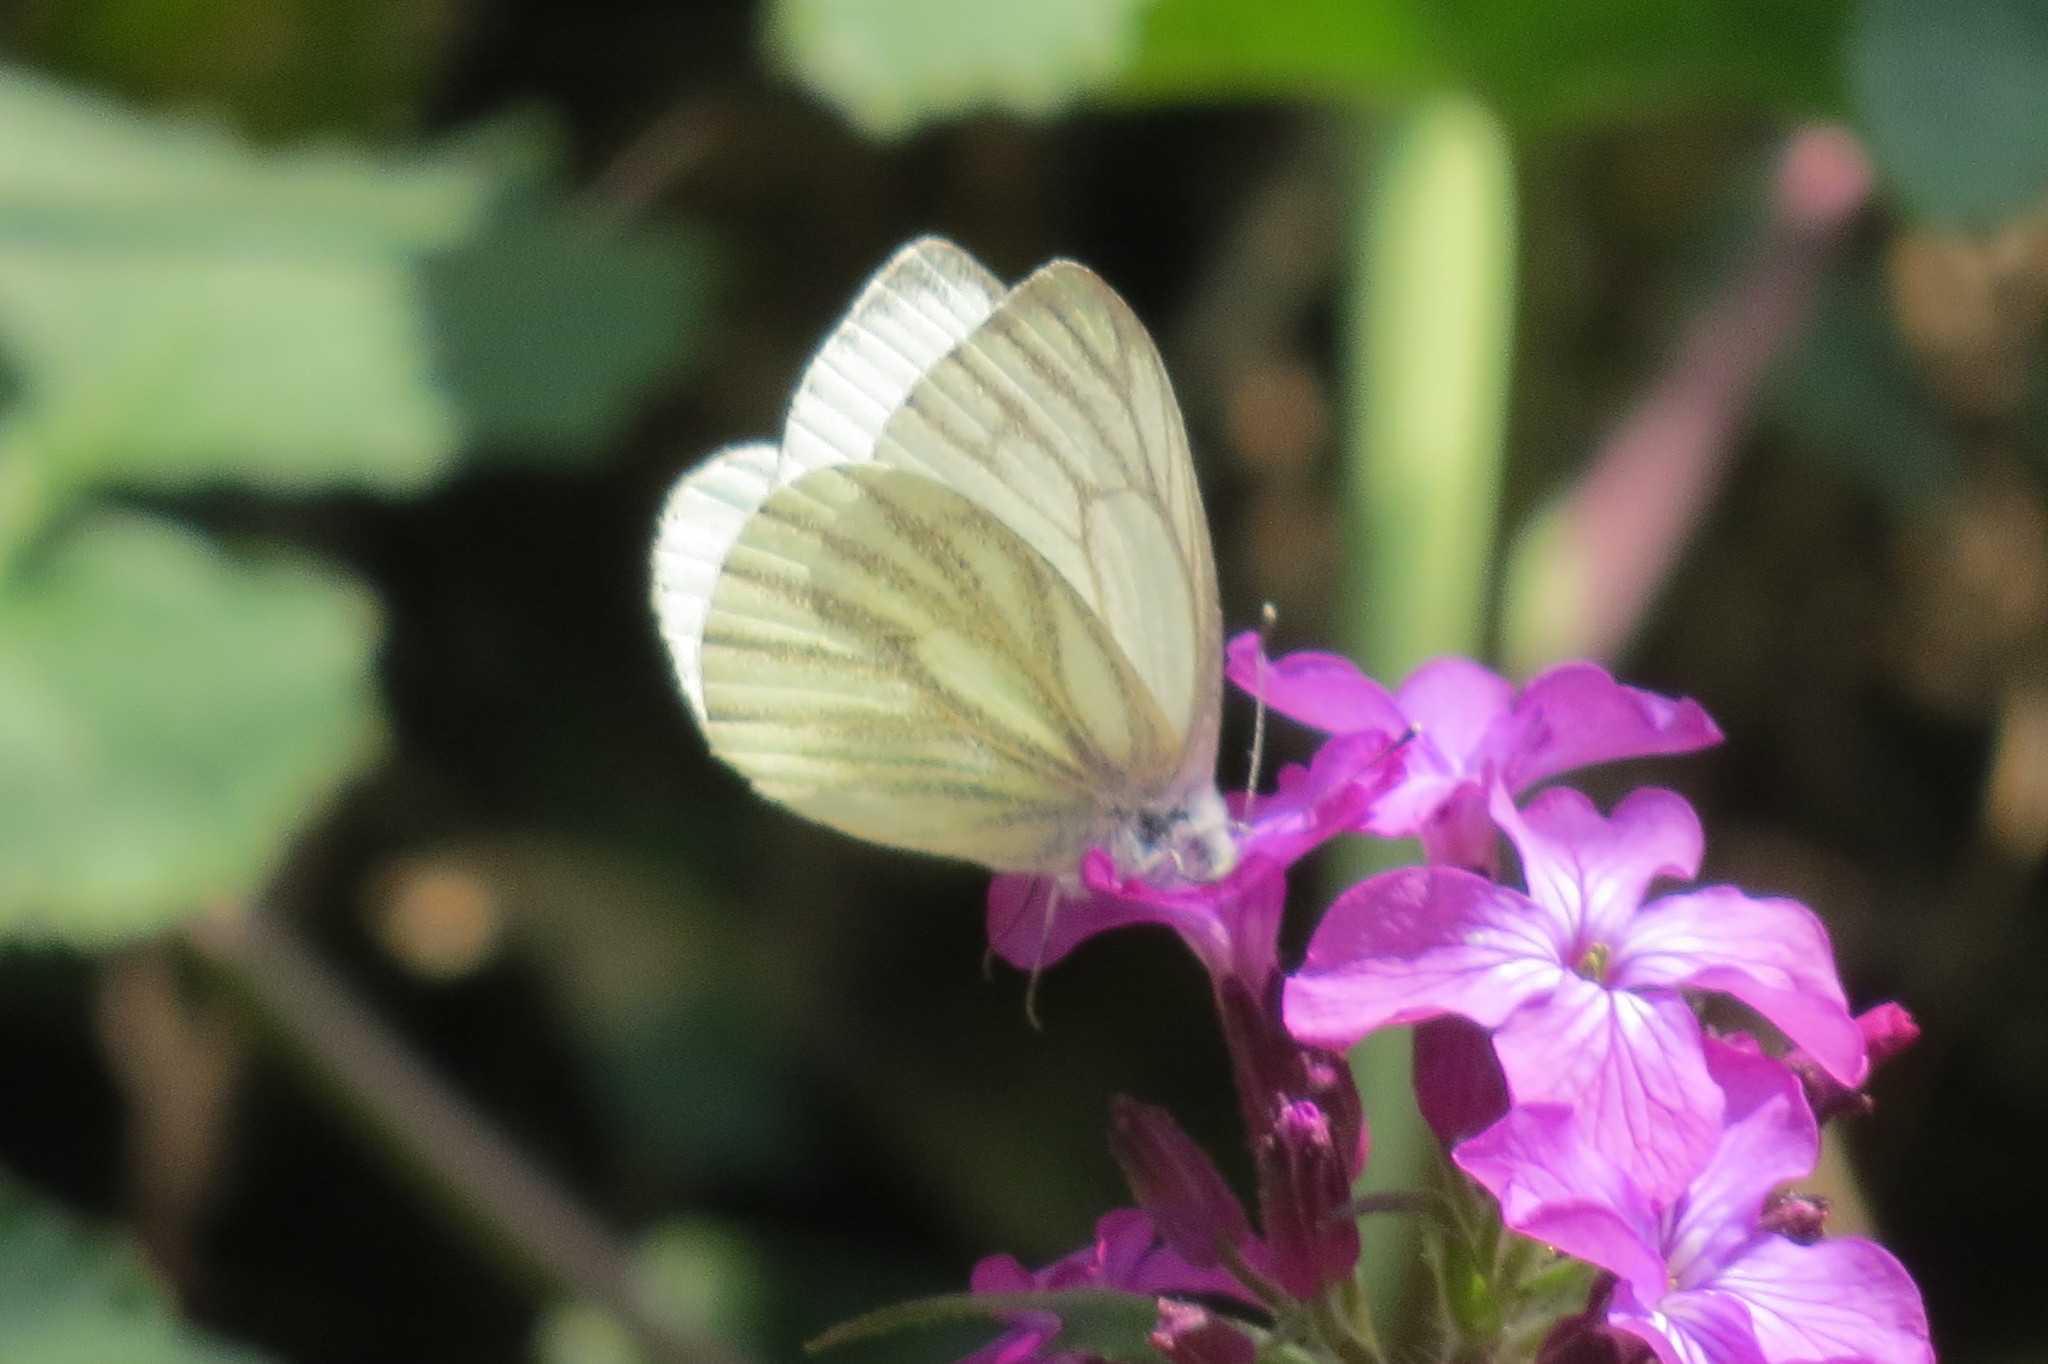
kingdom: Animalia
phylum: Arthropoda
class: Insecta
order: Lepidoptera
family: Pieridae
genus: Pieris
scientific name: Pieris napi
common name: Green-veined white
